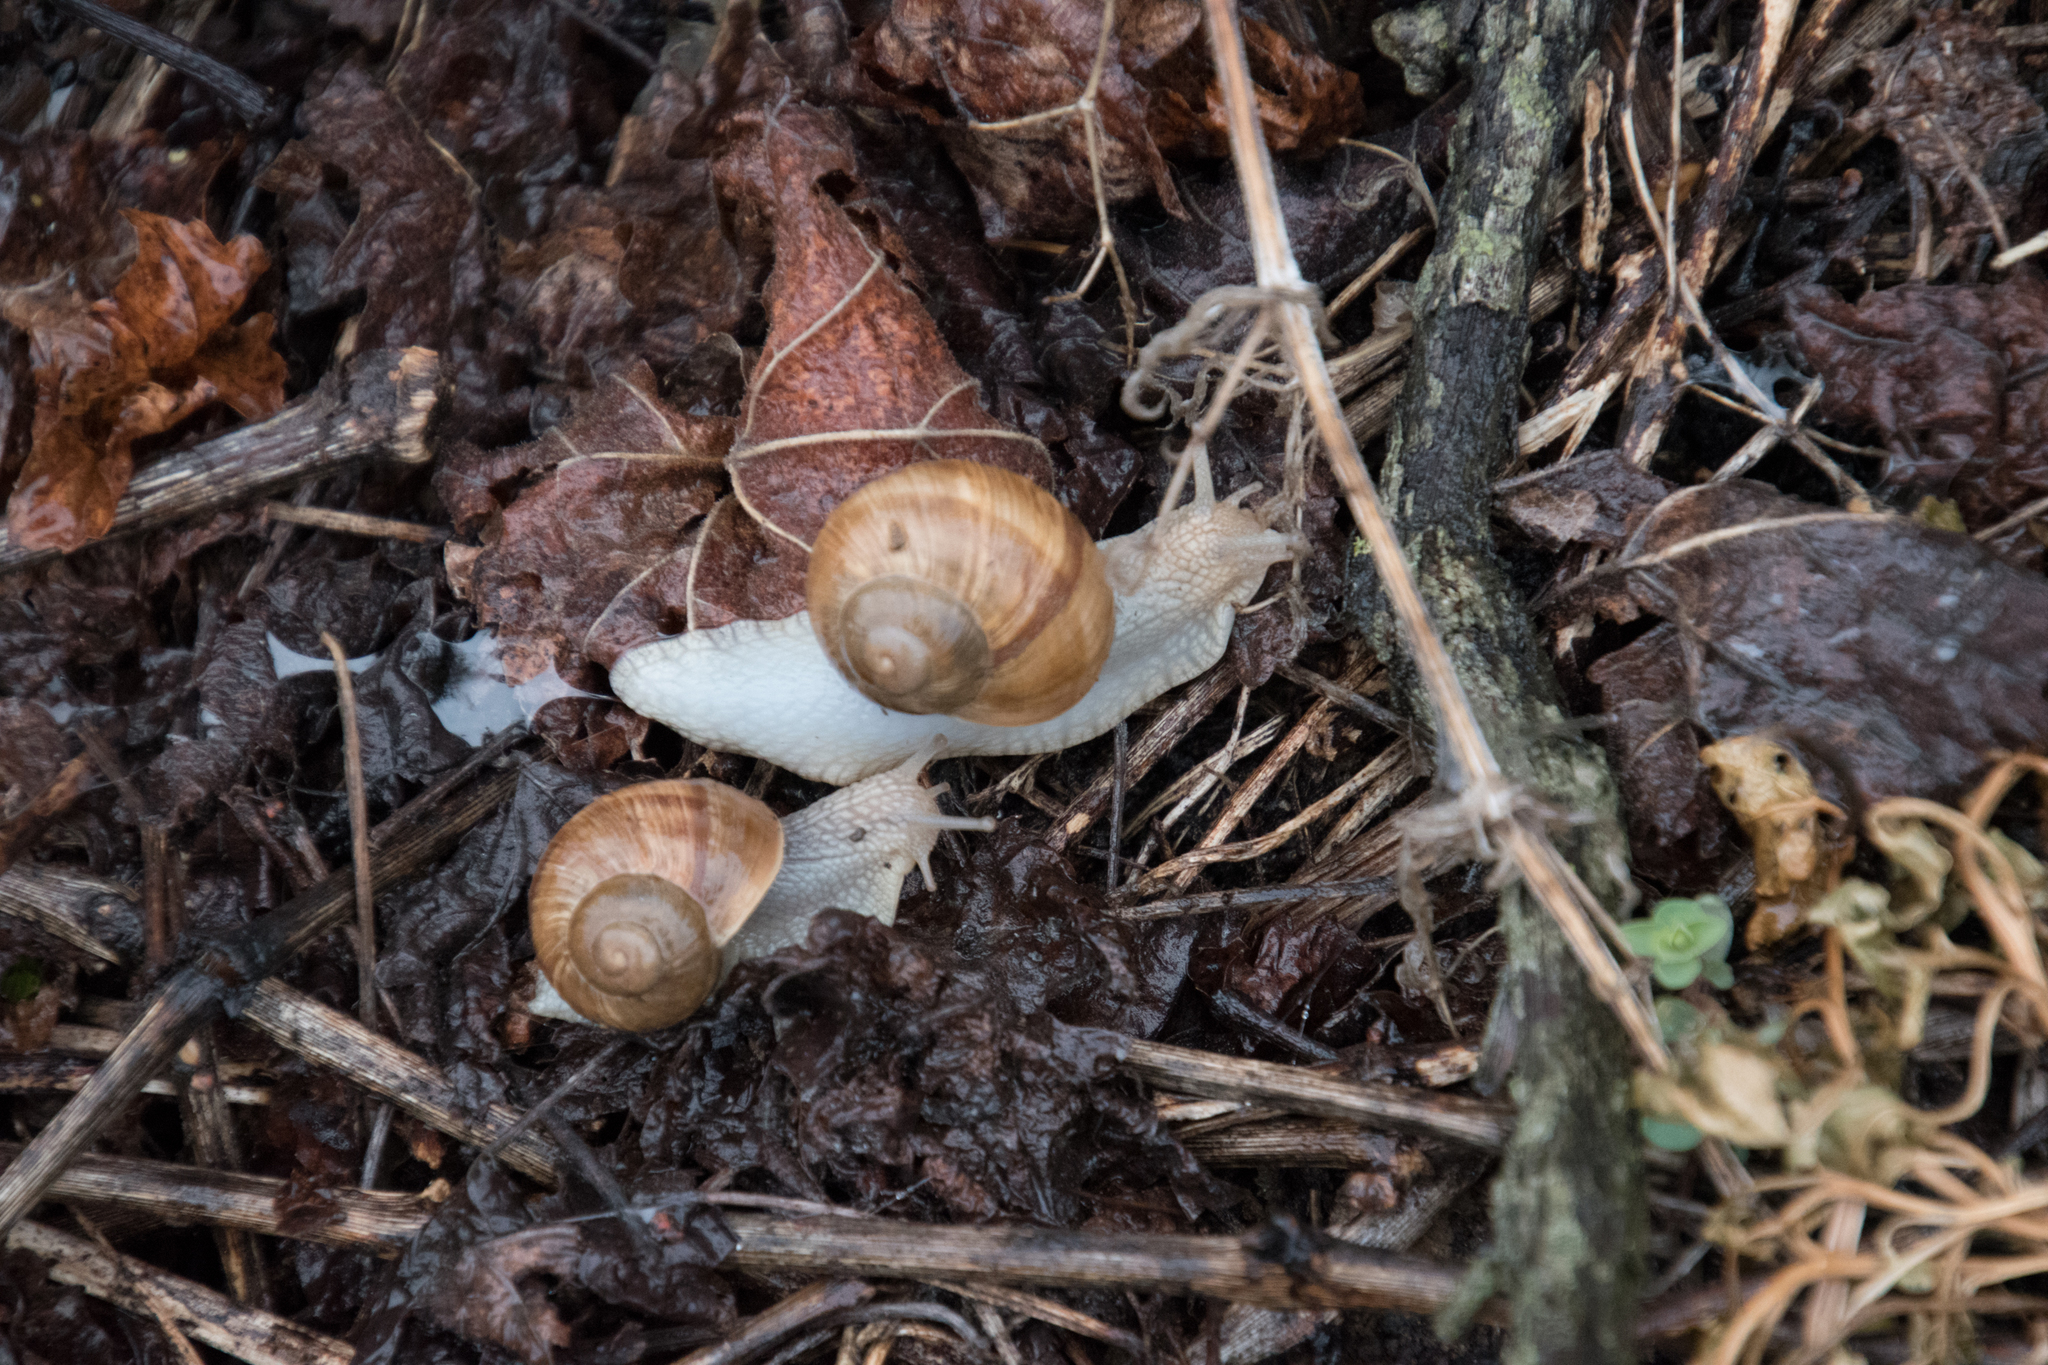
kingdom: Animalia
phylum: Mollusca
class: Gastropoda
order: Stylommatophora
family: Helicidae
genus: Helix
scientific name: Helix pomatia
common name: Roman snail
